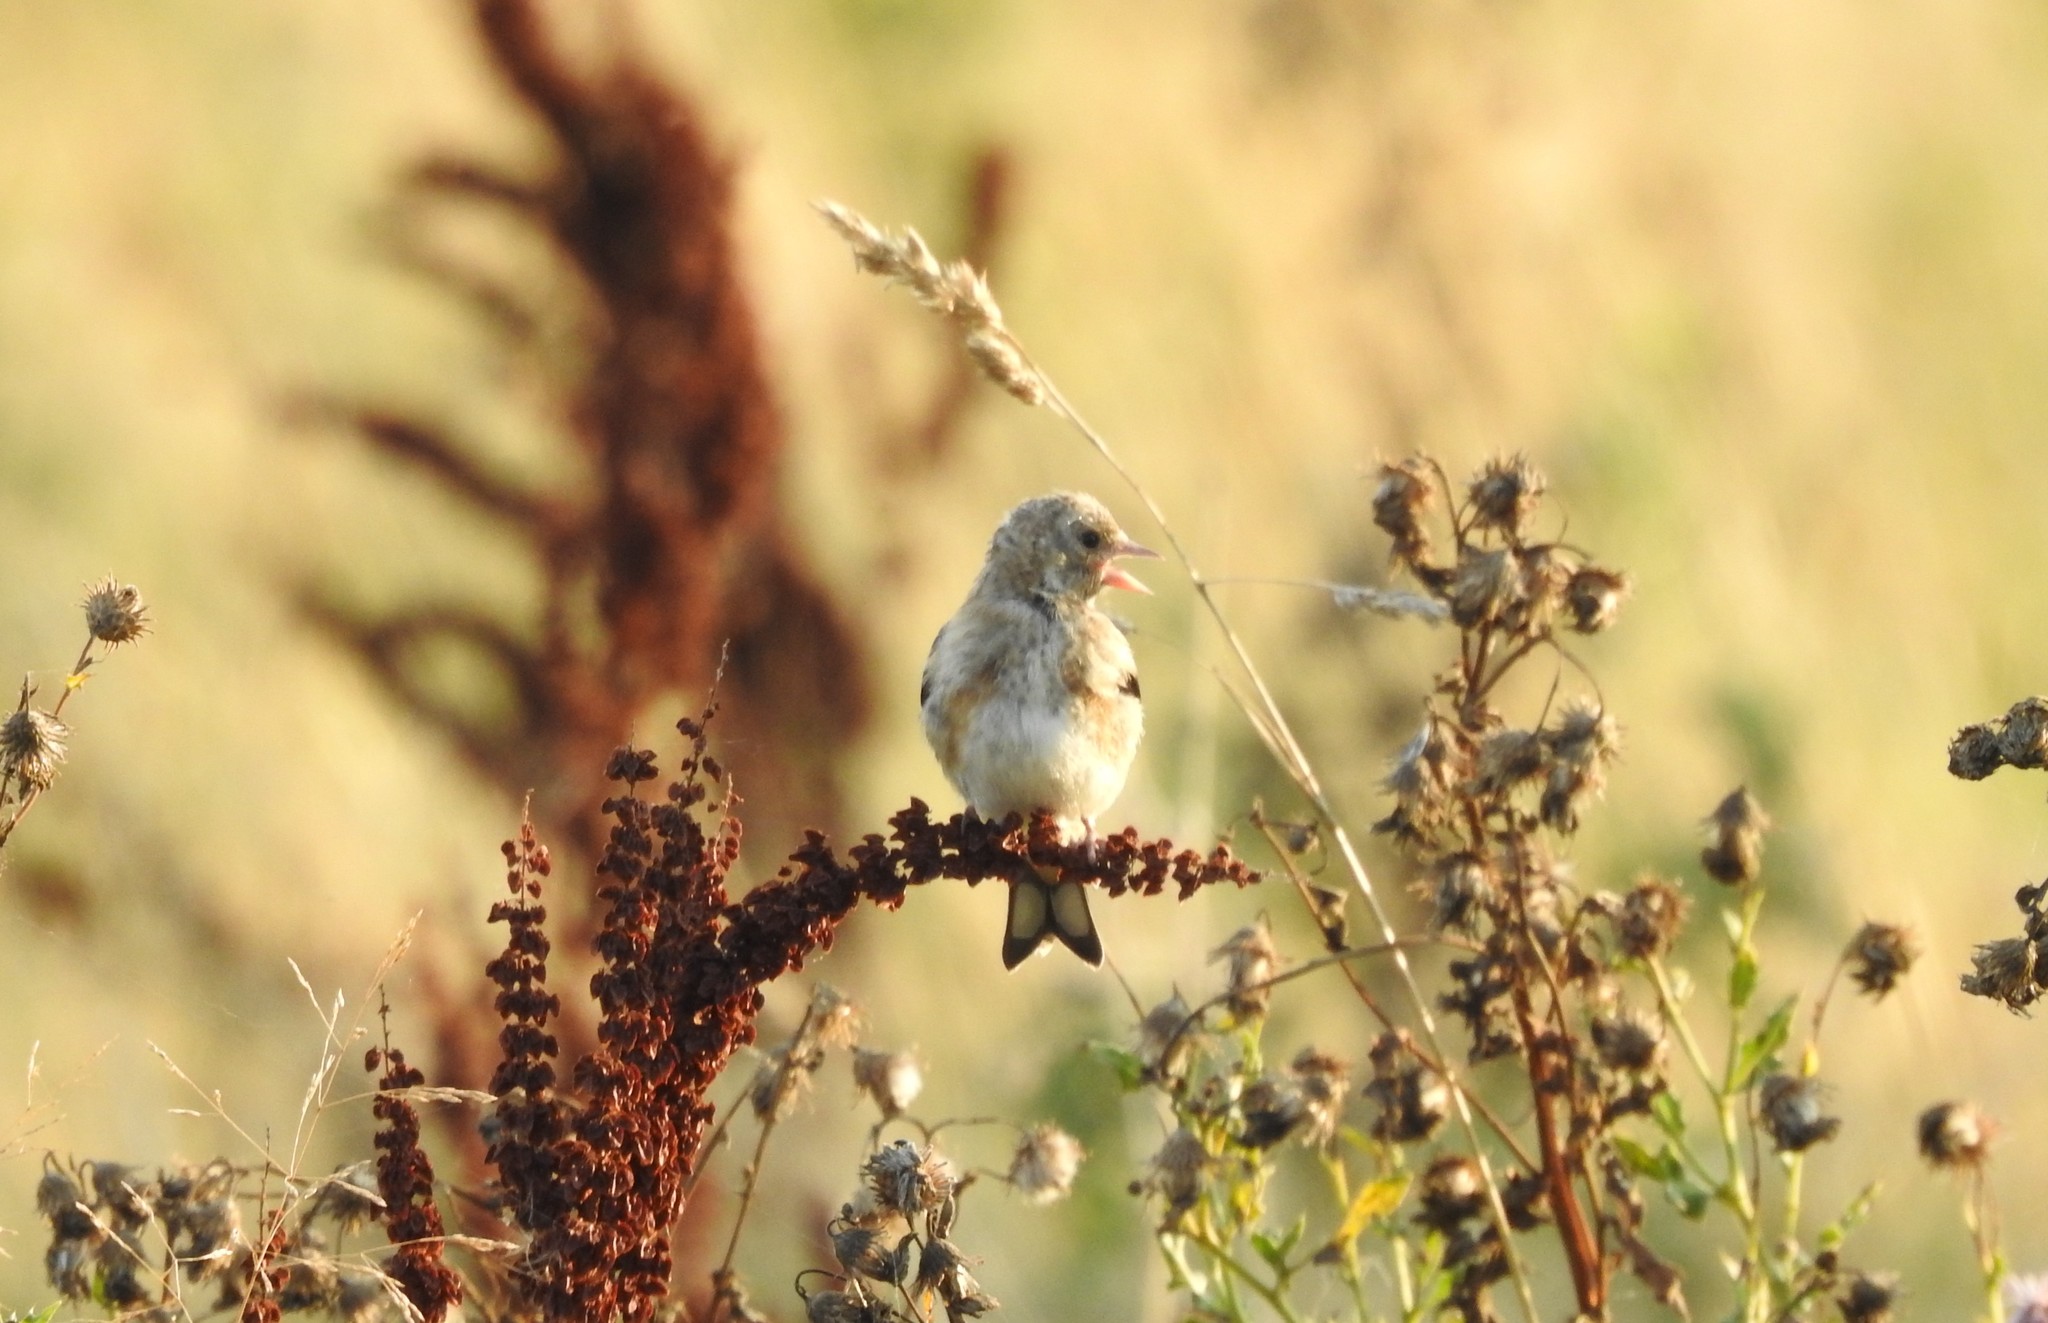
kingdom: Animalia
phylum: Chordata
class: Aves
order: Passeriformes
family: Fringillidae
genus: Carduelis
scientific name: Carduelis carduelis
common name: European goldfinch
